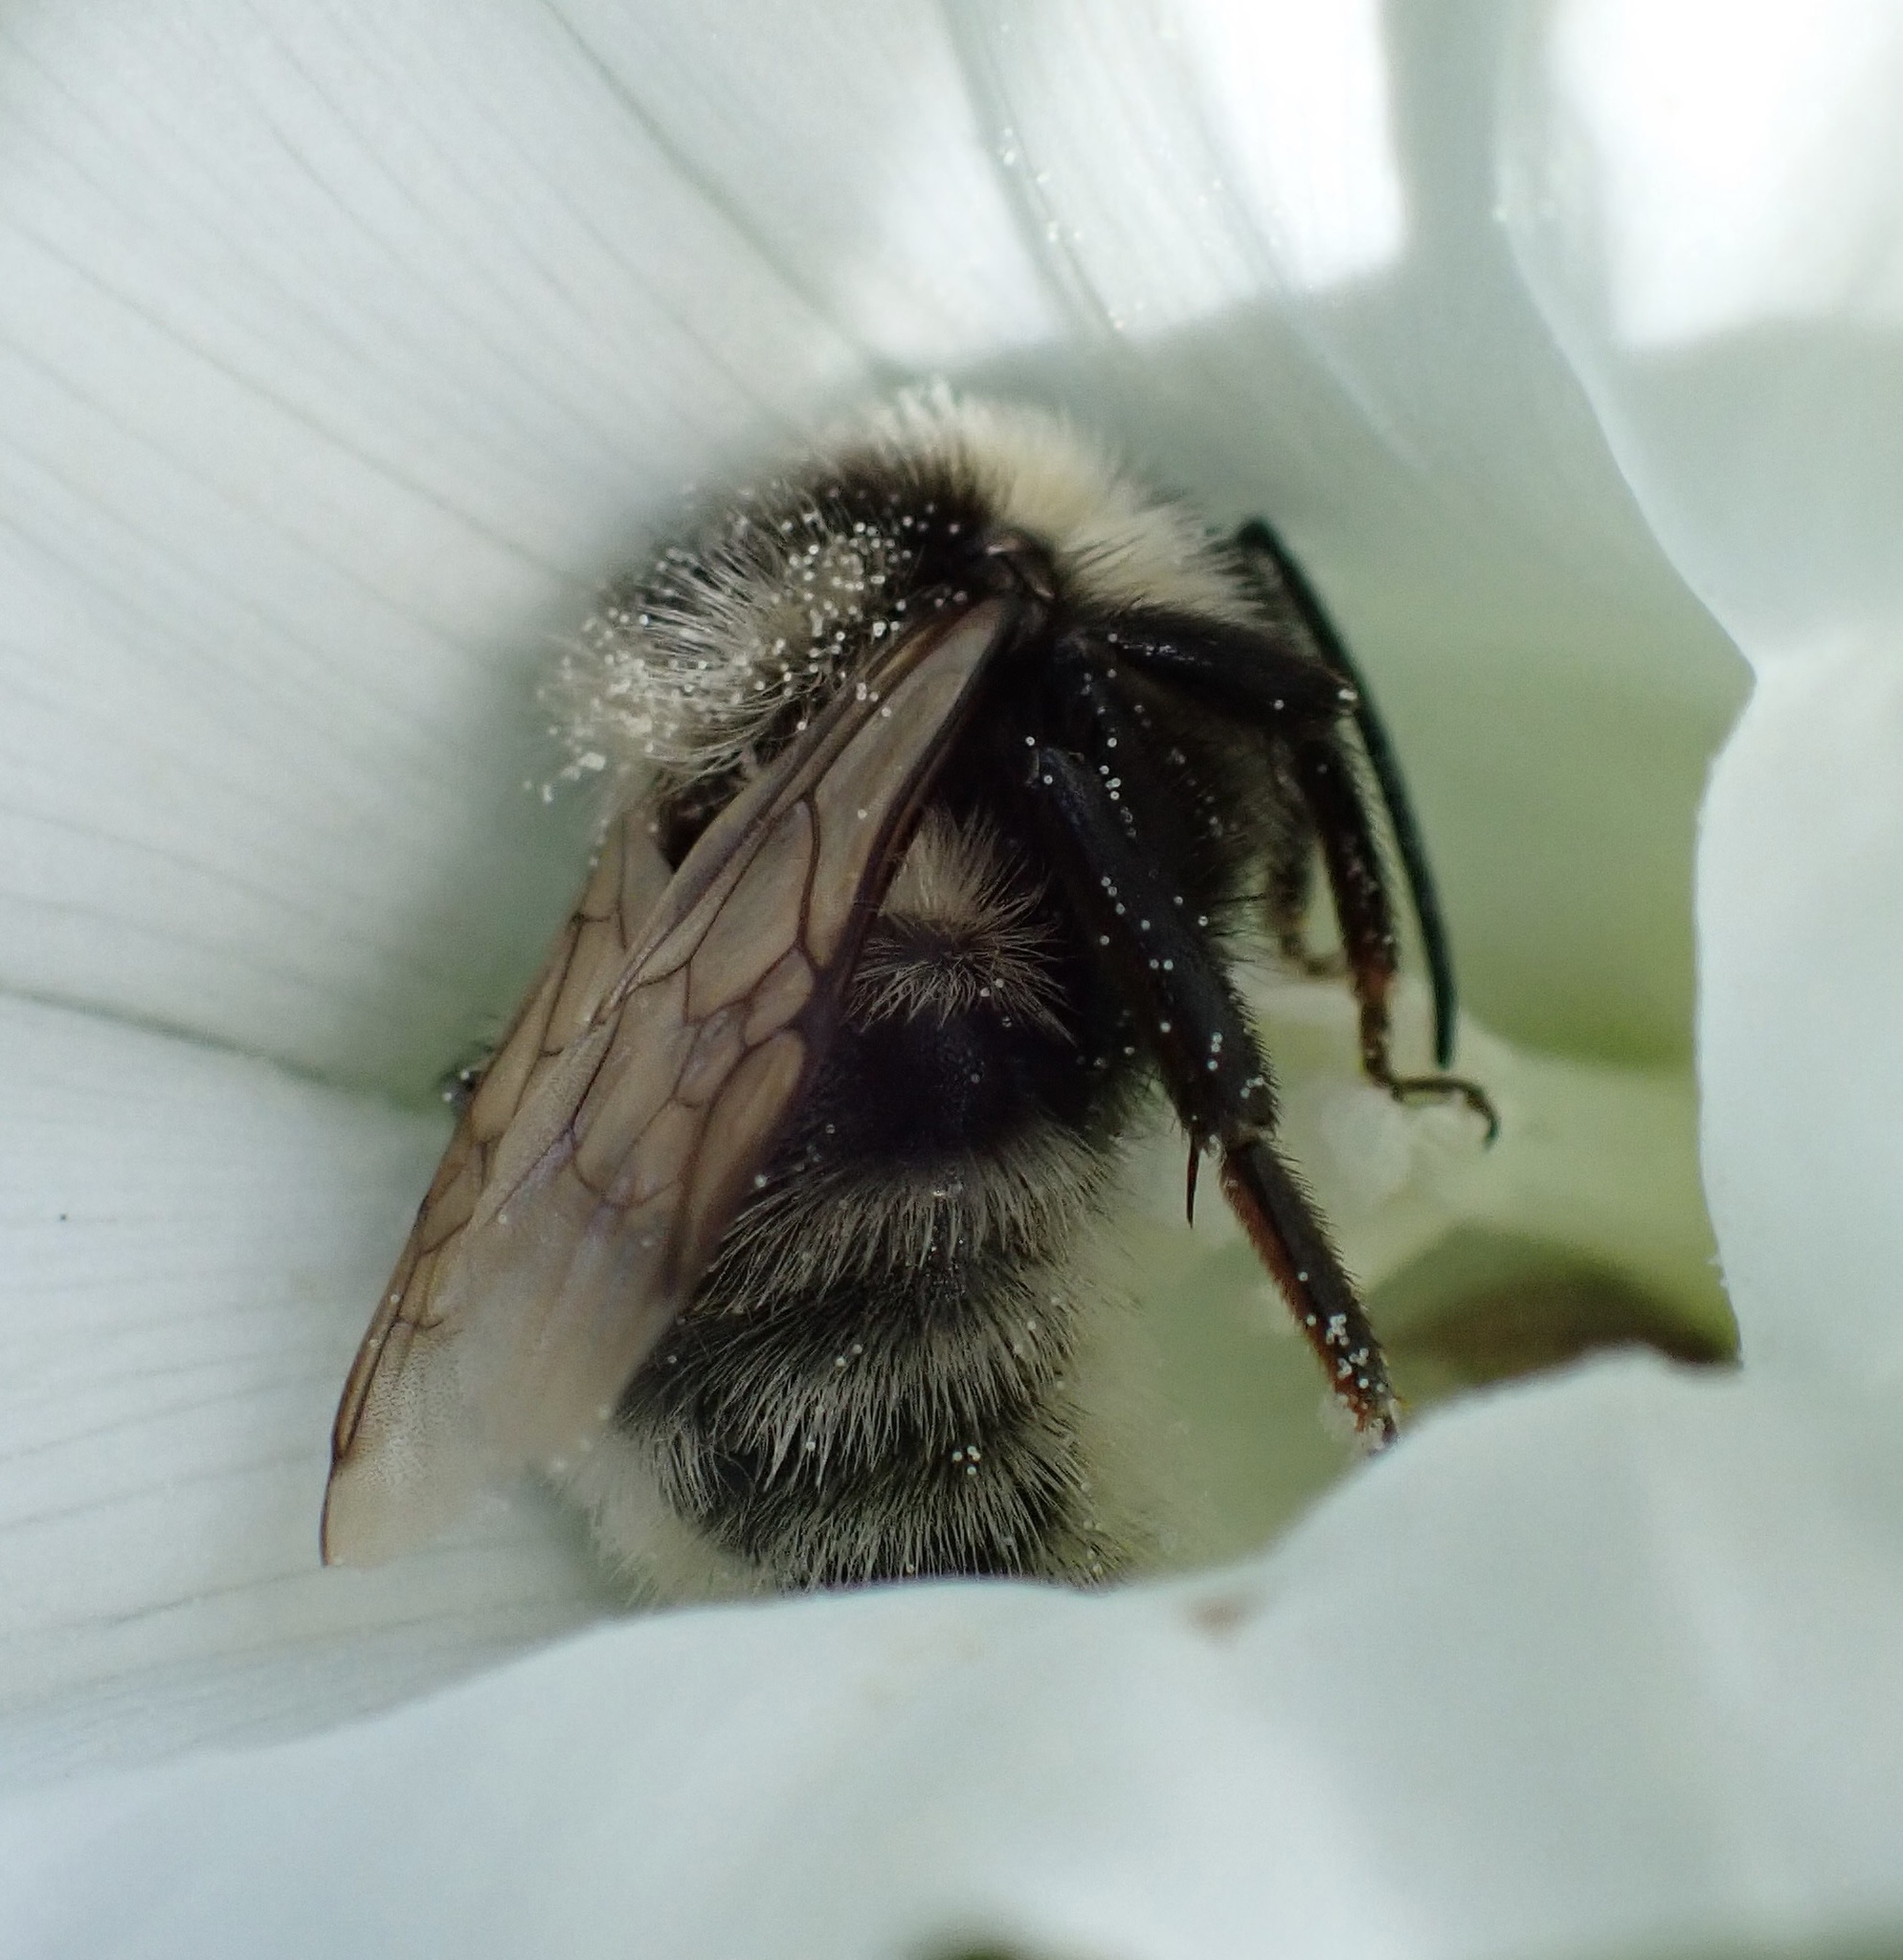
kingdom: Animalia
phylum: Arthropoda
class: Insecta
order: Hymenoptera
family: Apidae
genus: Bombus
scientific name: Bombus campestris
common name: Field cuckoo-bee
